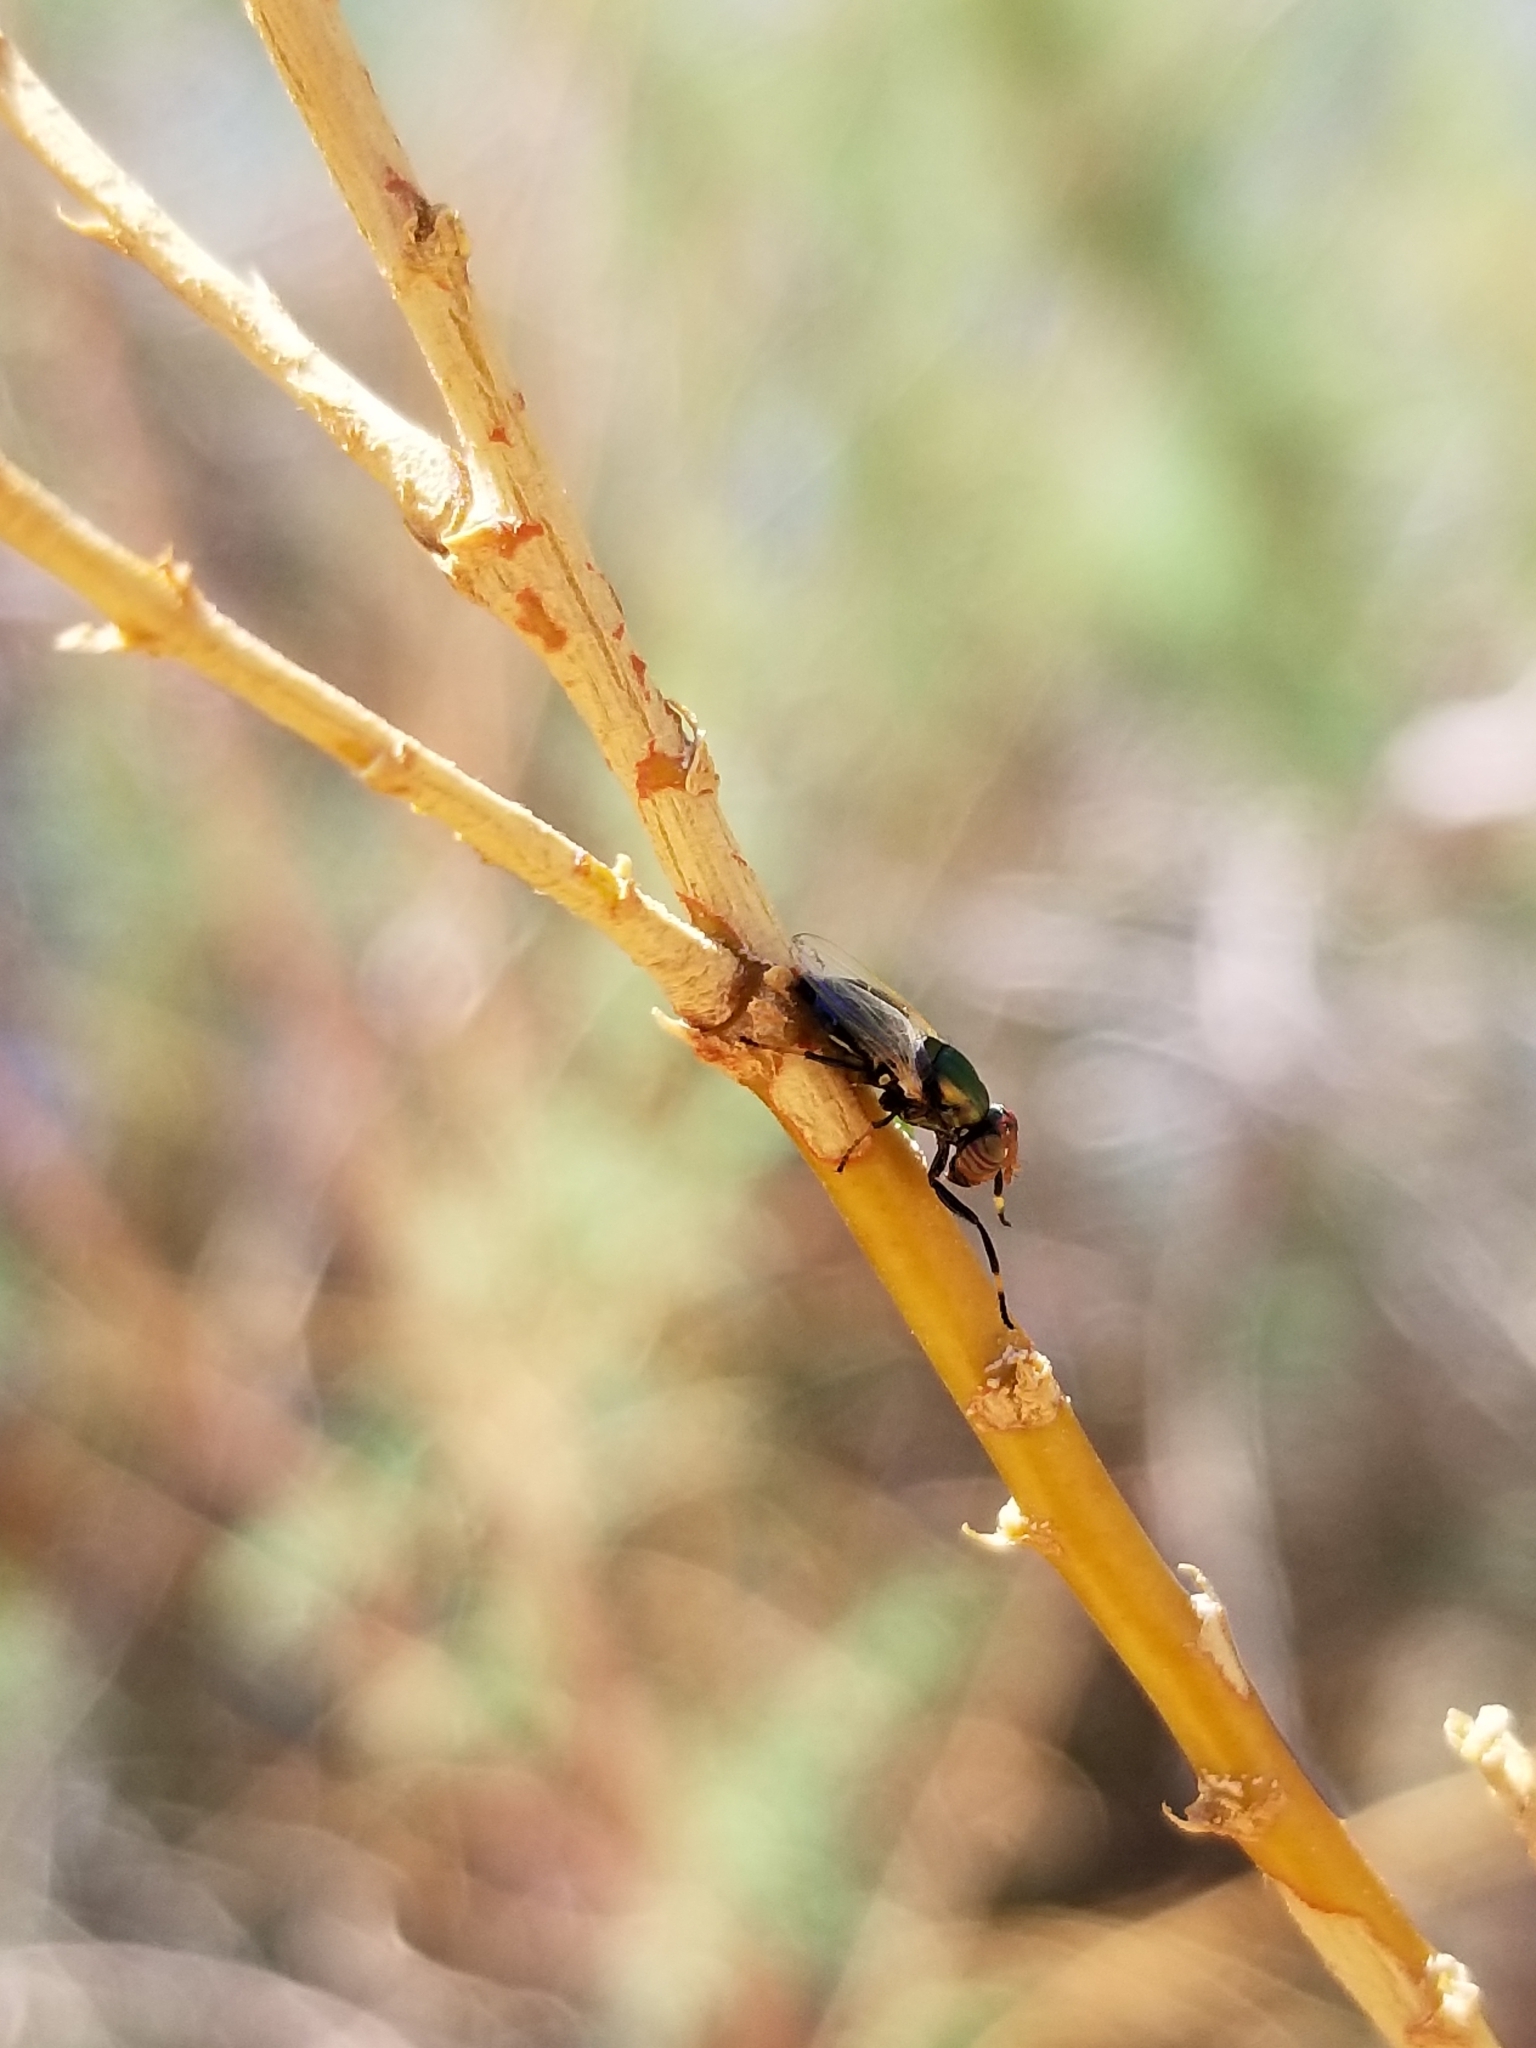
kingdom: Animalia
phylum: Arthropoda
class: Insecta
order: Diptera
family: Ulidiidae
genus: Physiphora
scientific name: Physiphora alceae
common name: Picture-winged fly
